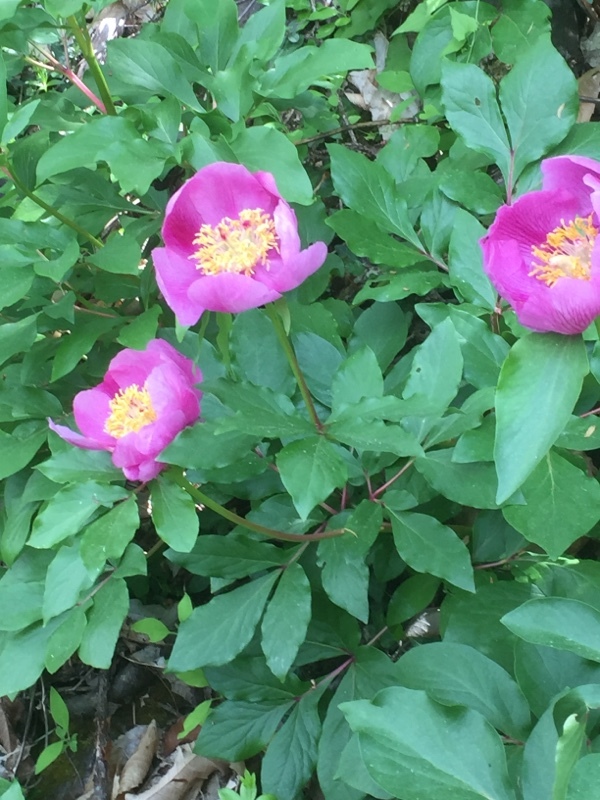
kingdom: Plantae
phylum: Tracheophyta
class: Magnoliopsida
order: Saxifragales
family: Paeoniaceae
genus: Paeonia
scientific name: Paeonia broteroi
